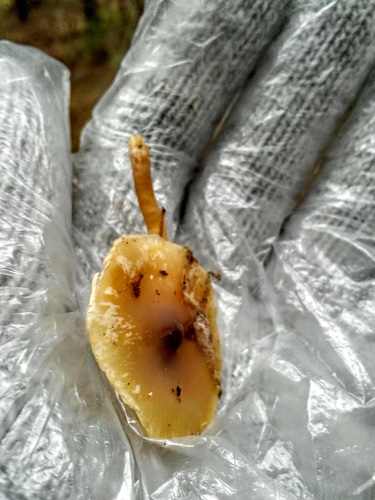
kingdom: Fungi
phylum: Basidiomycota
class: Agaricomycetes
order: Agaricales
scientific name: Agaricales
